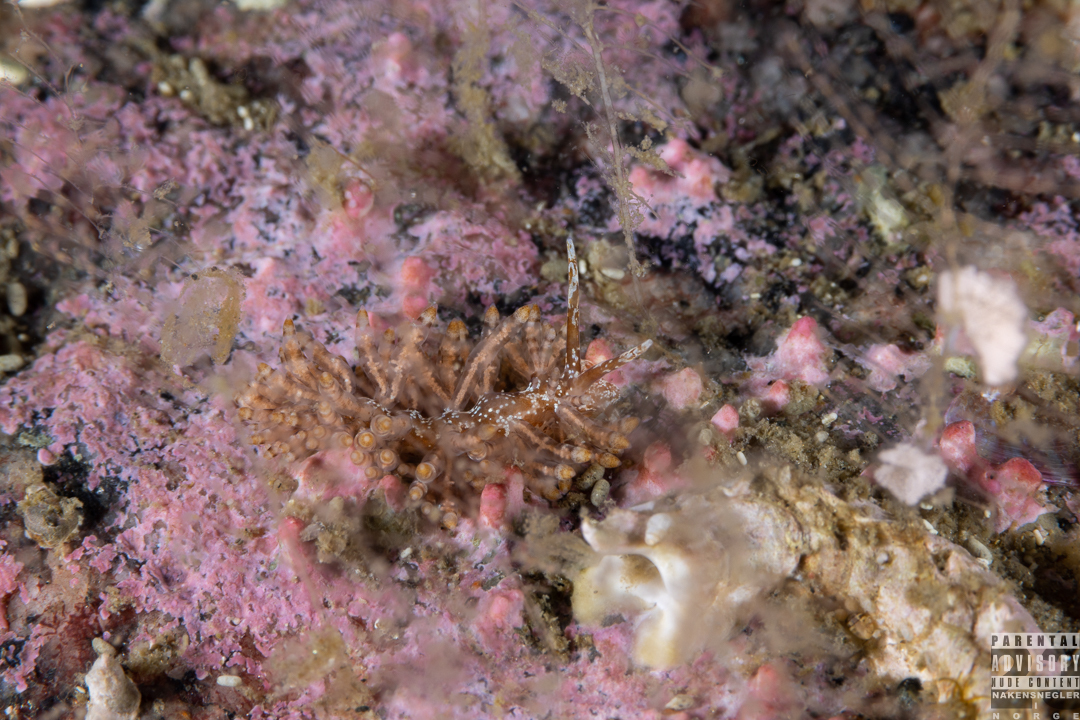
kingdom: Animalia
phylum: Mollusca
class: Gastropoda
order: Nudibranchia
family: Eubranchidae
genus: Eubranchus
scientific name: Eubranchus vittatus
